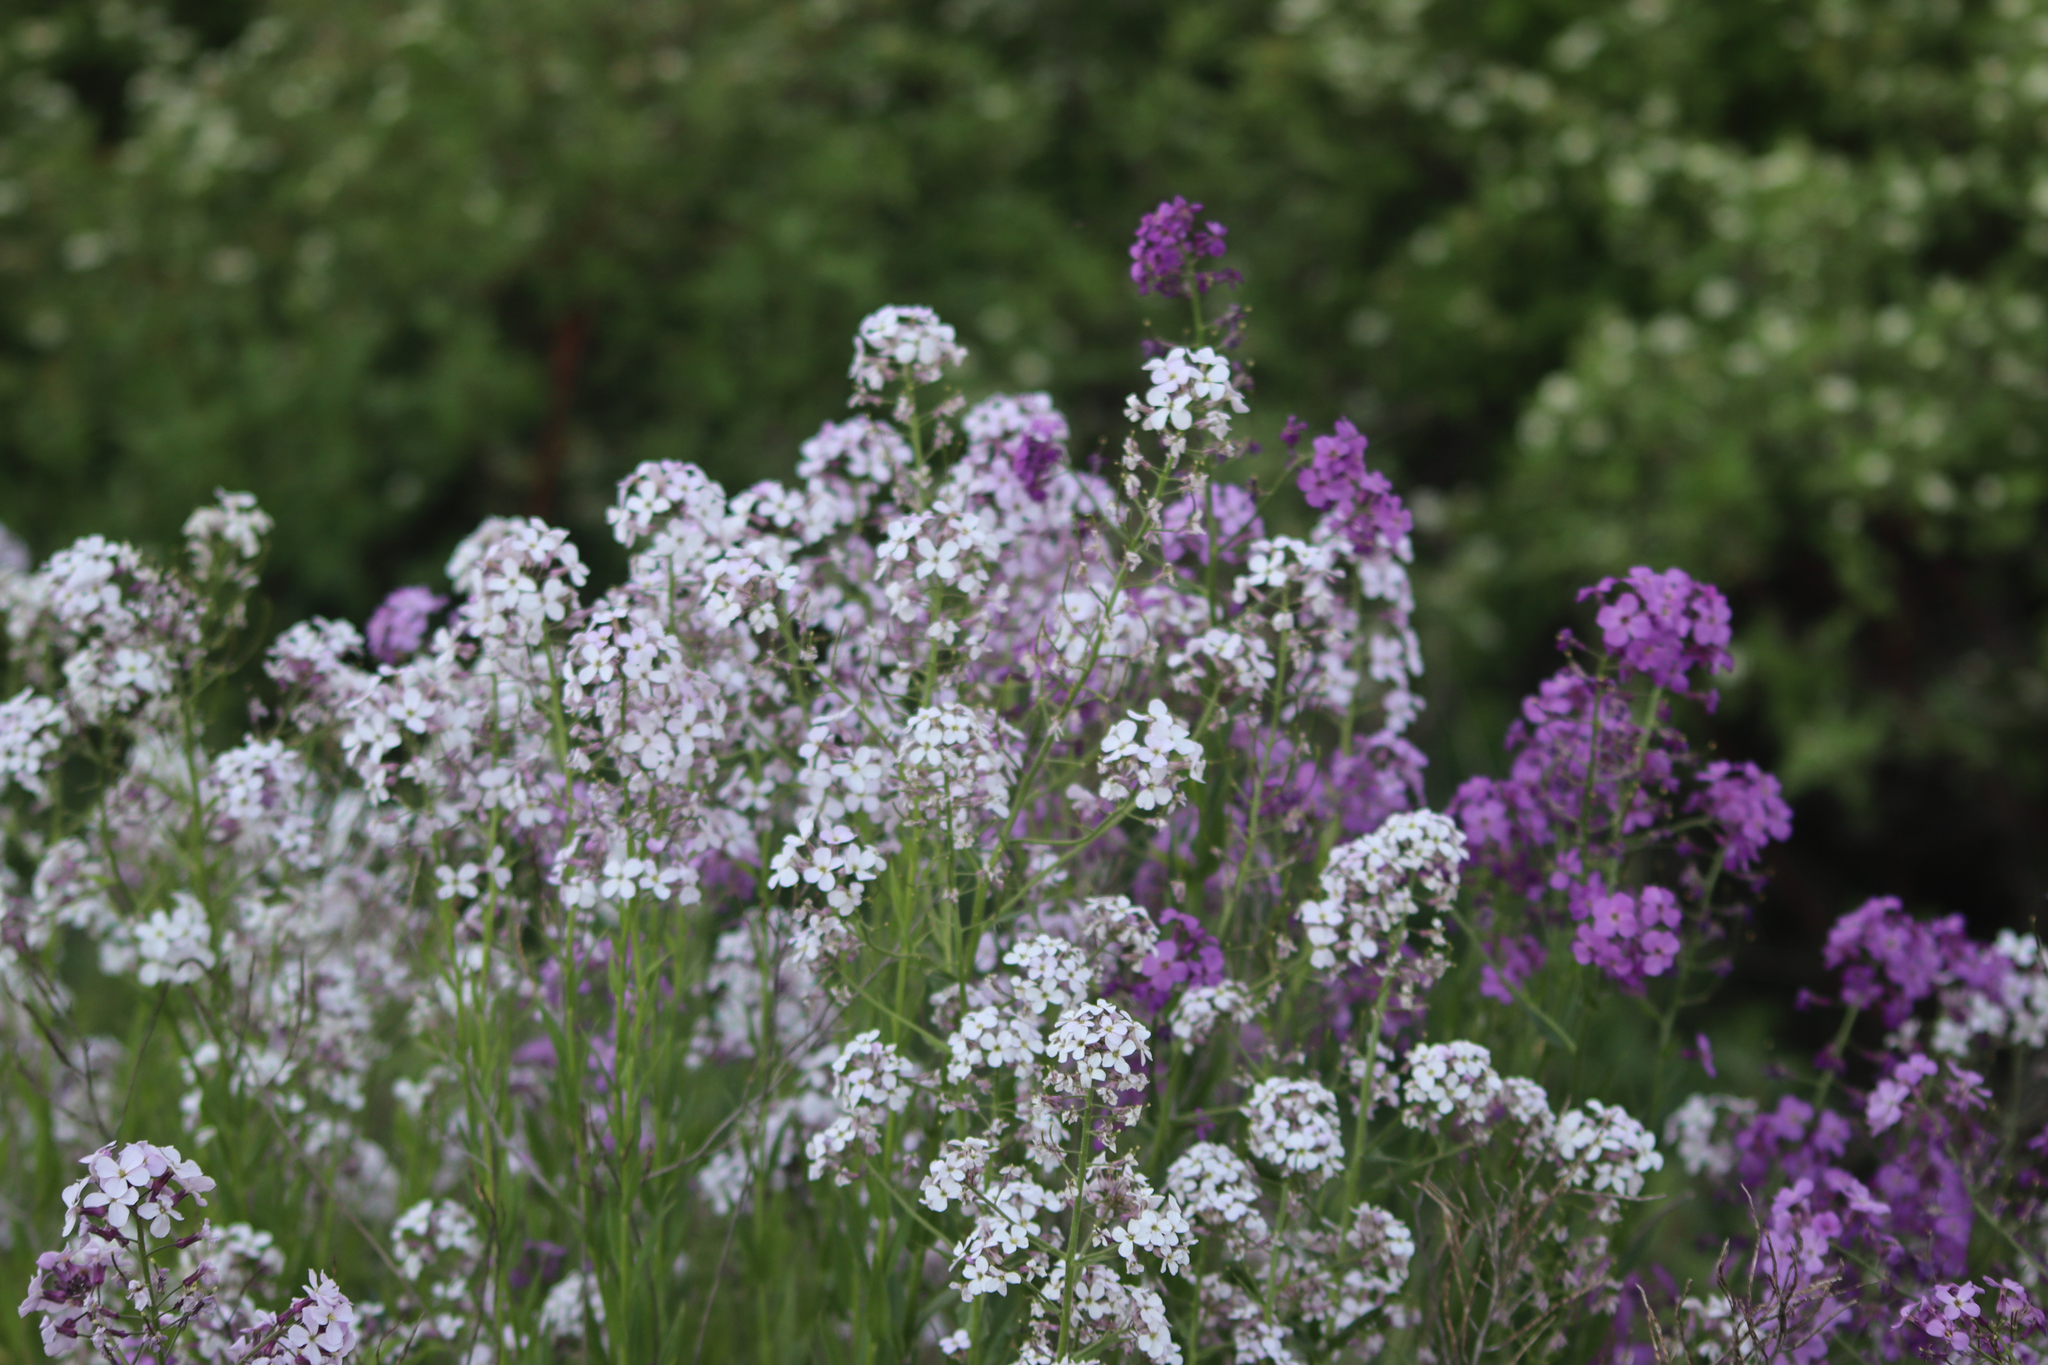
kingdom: Plantae
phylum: Tracheophyta
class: Magnoliopsida
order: Brassicales
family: Brassicaceae
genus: Hesperis
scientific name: Hesperis matronalis
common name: Dame's-violet
